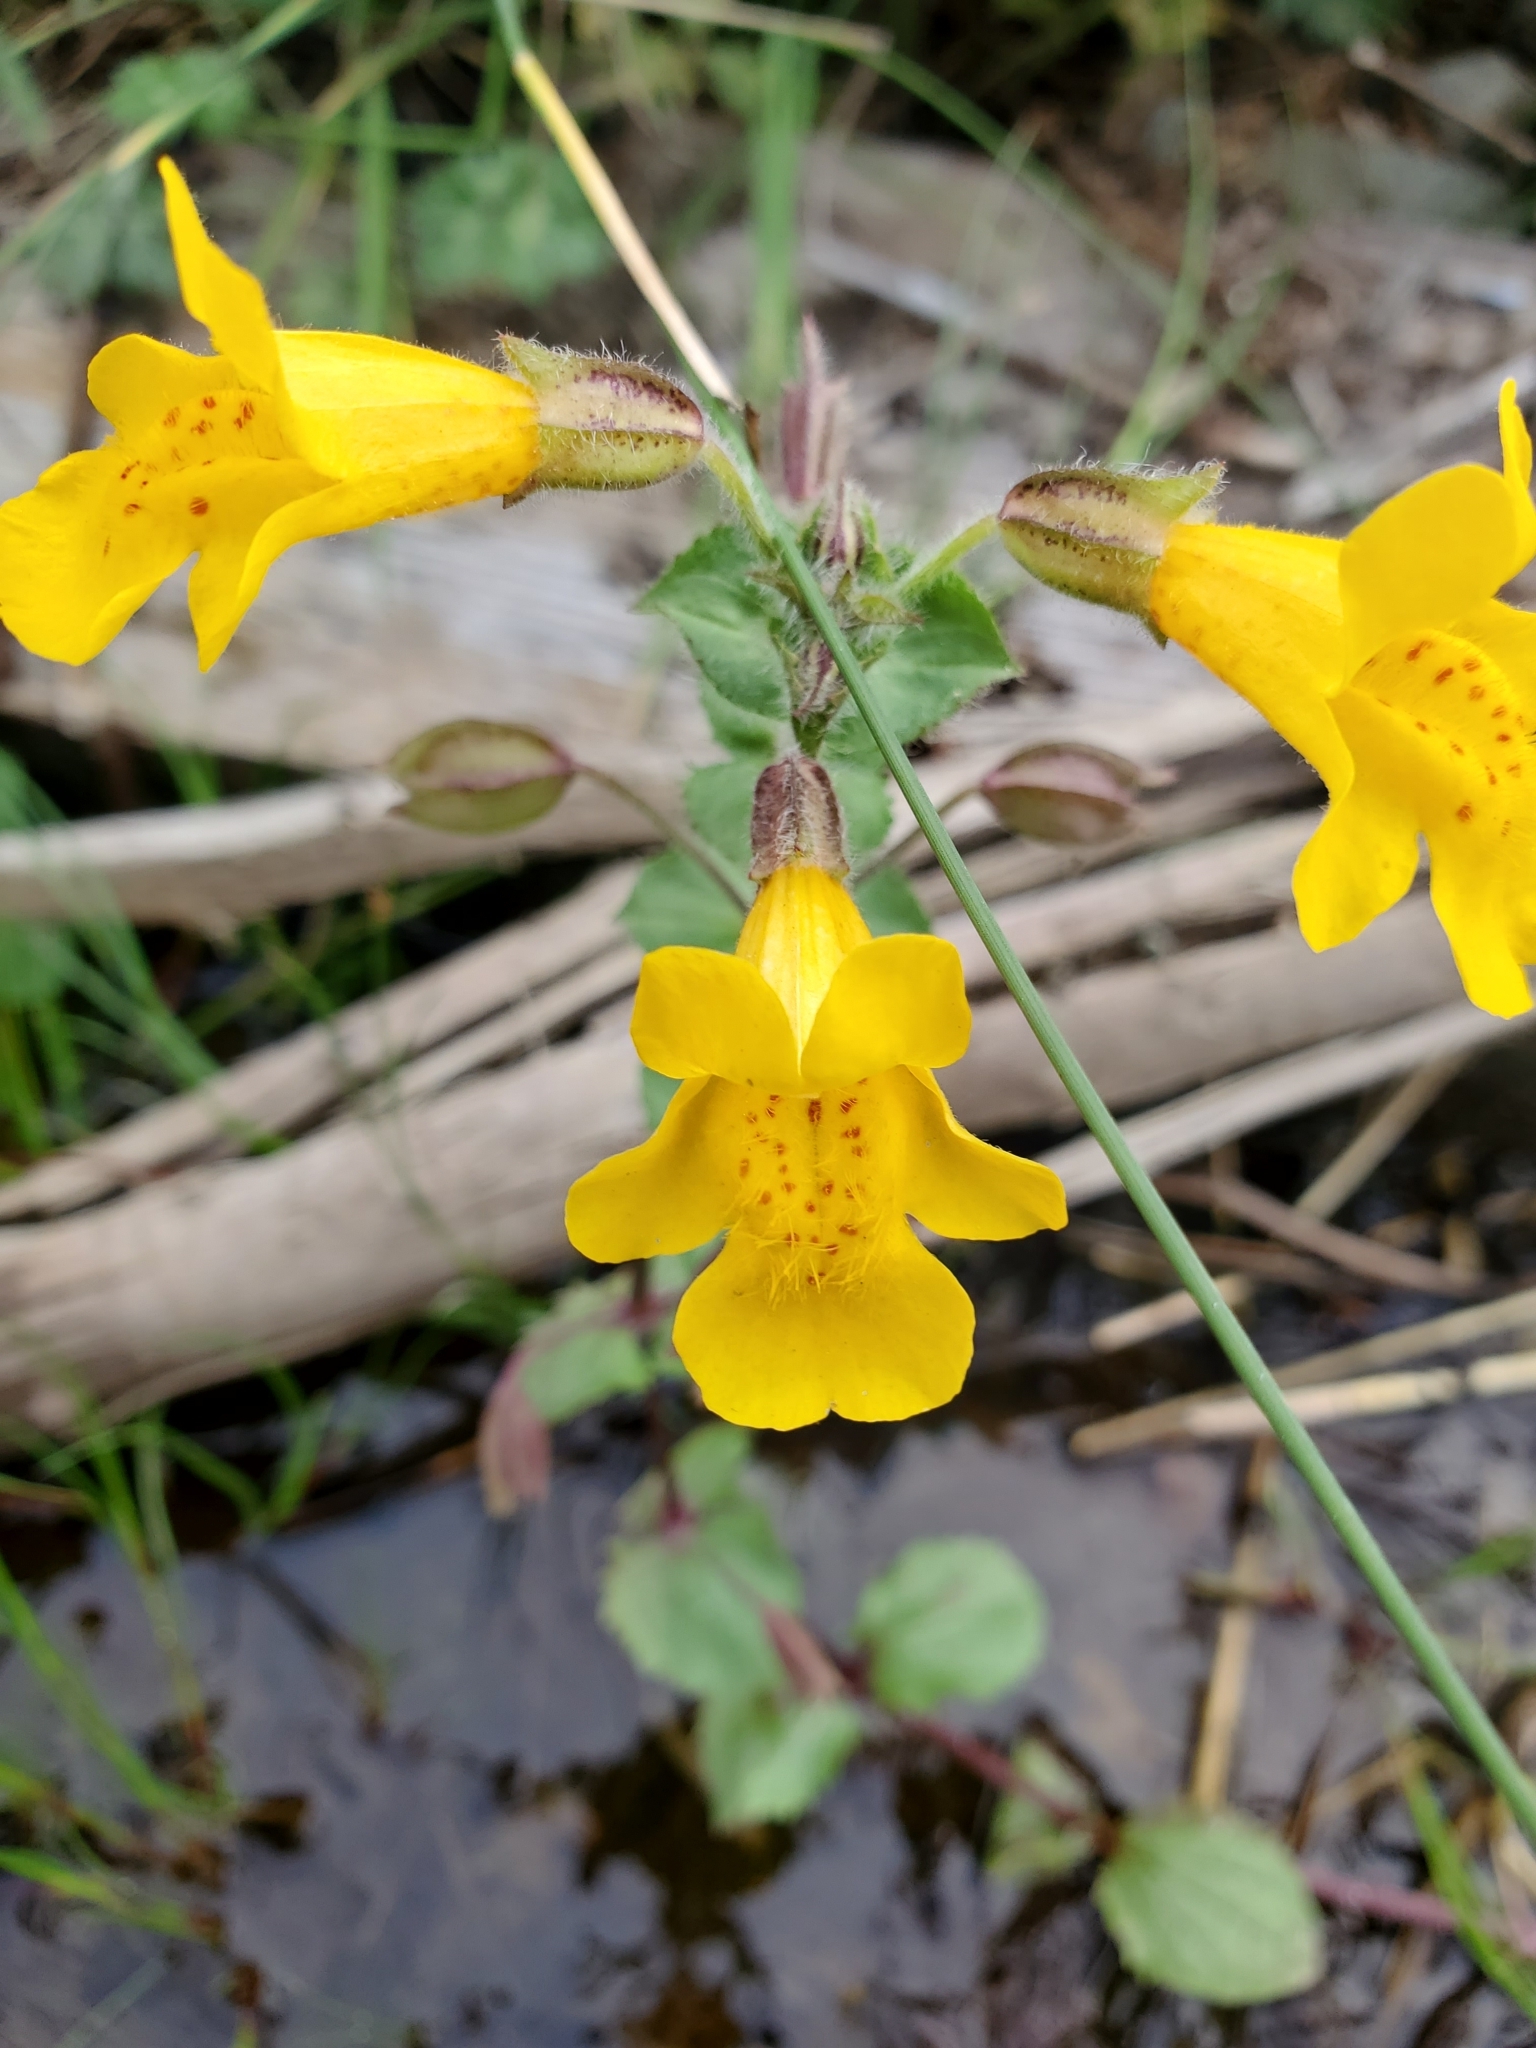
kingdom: Plantae
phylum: Tracheophyta
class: Magnoliopsida
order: Lamiales
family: Phrymaceae
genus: Erythranthe
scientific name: Erythranthe guttata
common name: Monkeyflower
